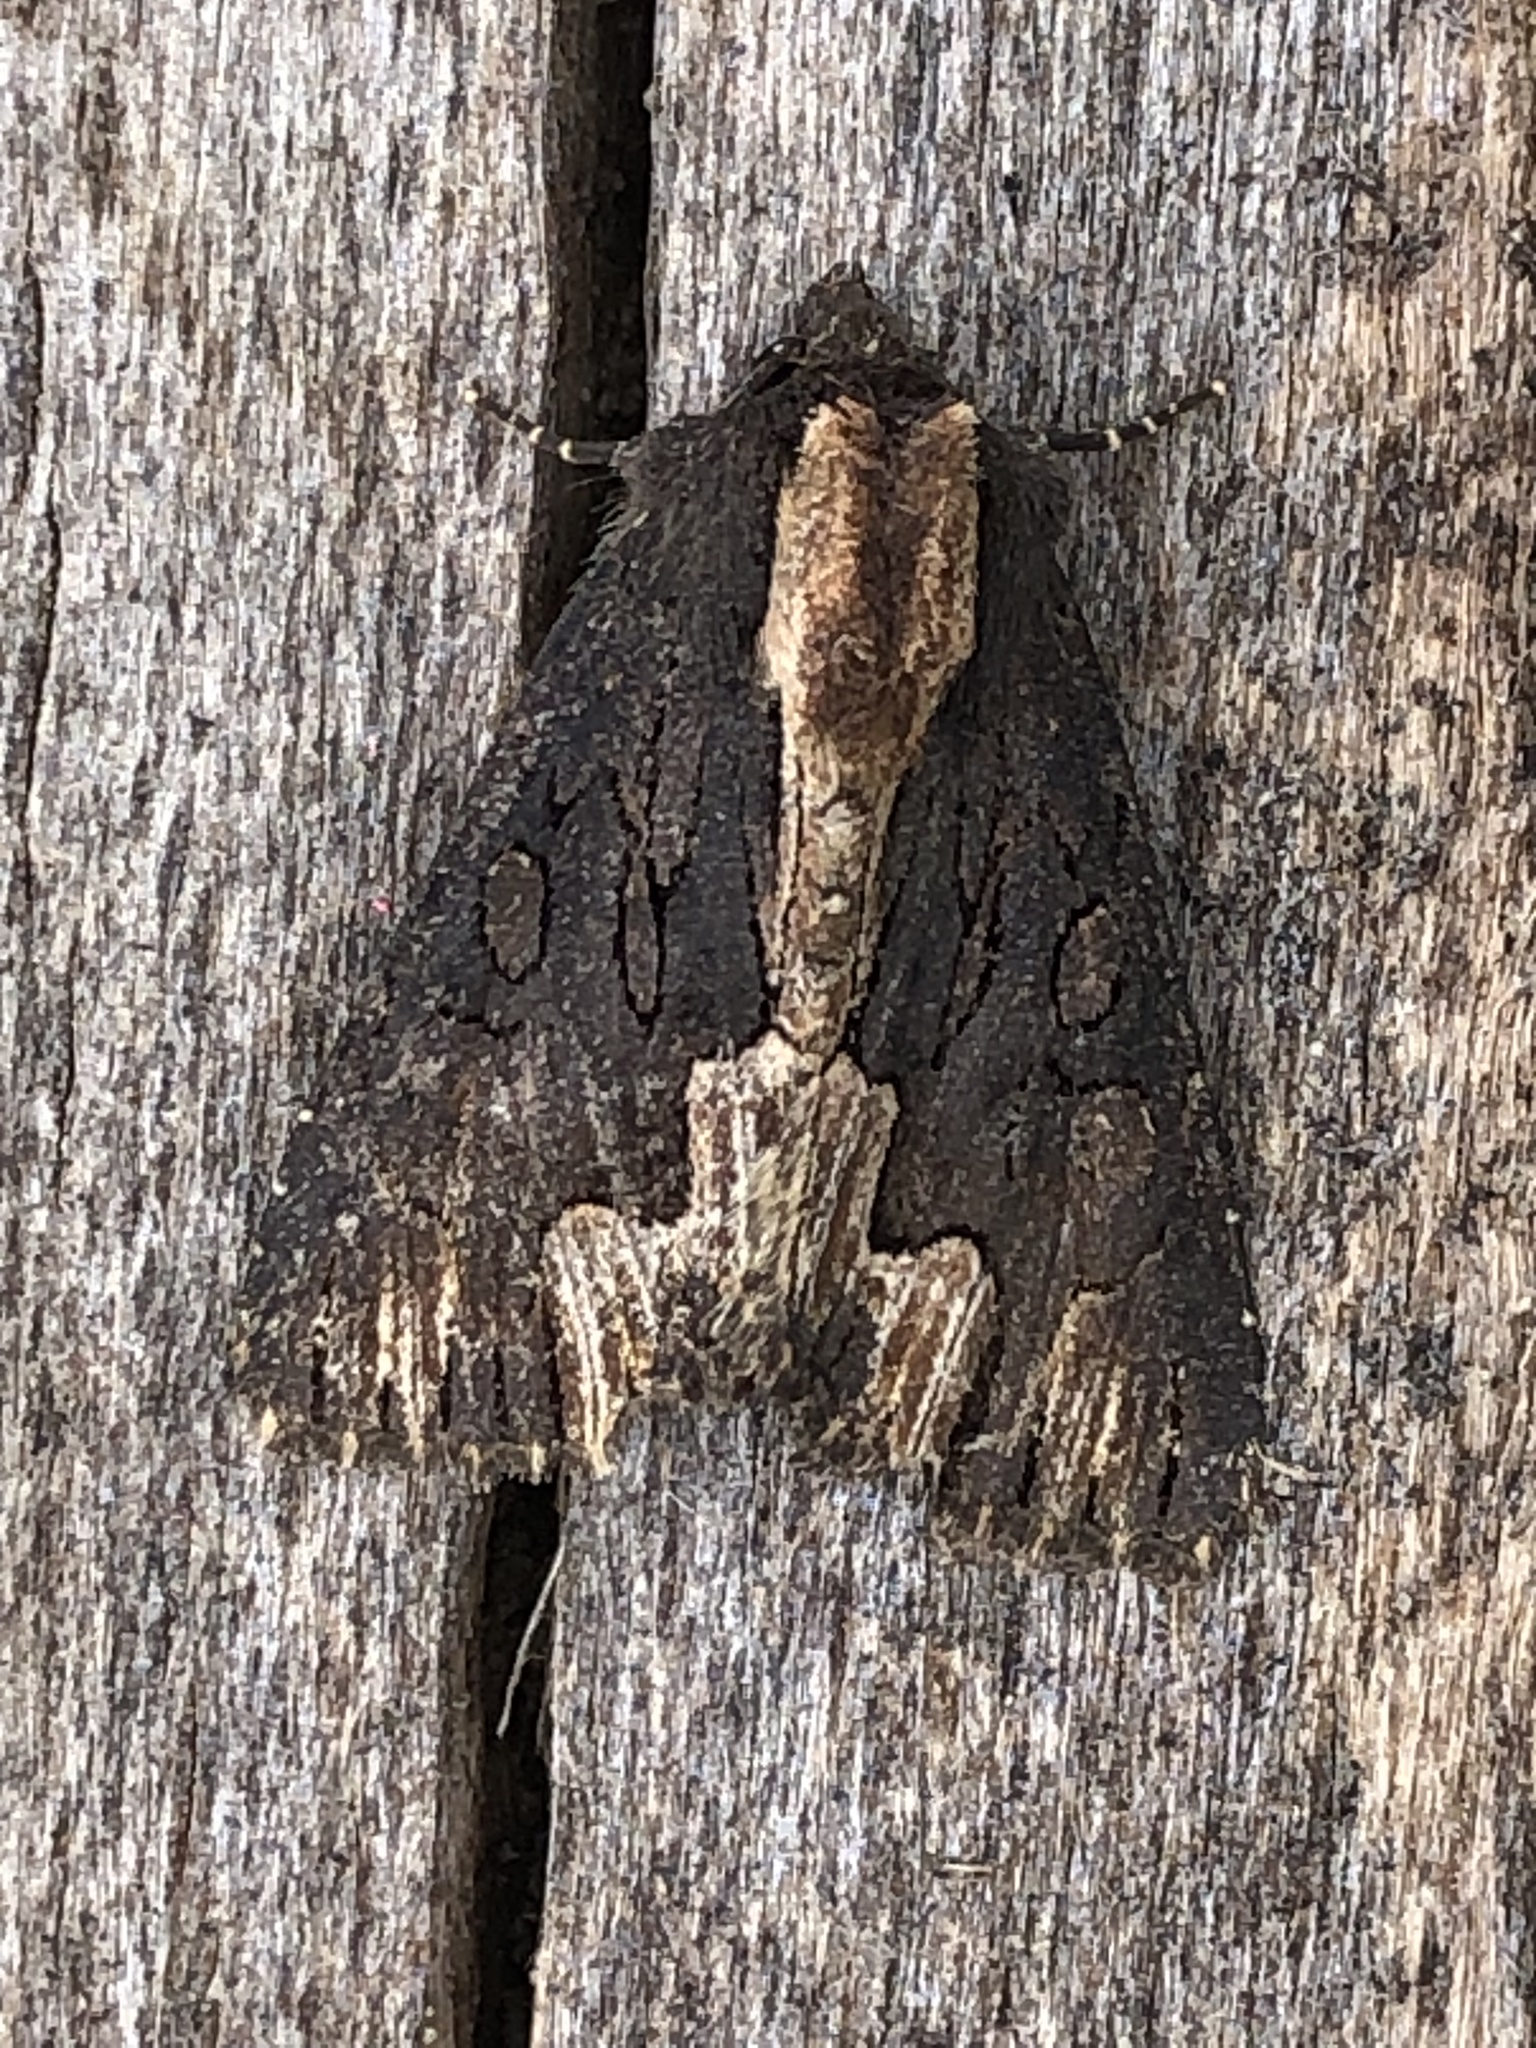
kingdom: Animalia
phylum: Arthropoda
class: Insecta
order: Lepidoptera
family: Noctuidae
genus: Dypterygia
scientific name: Dypterygia scabriuscula
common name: Bird's wing
